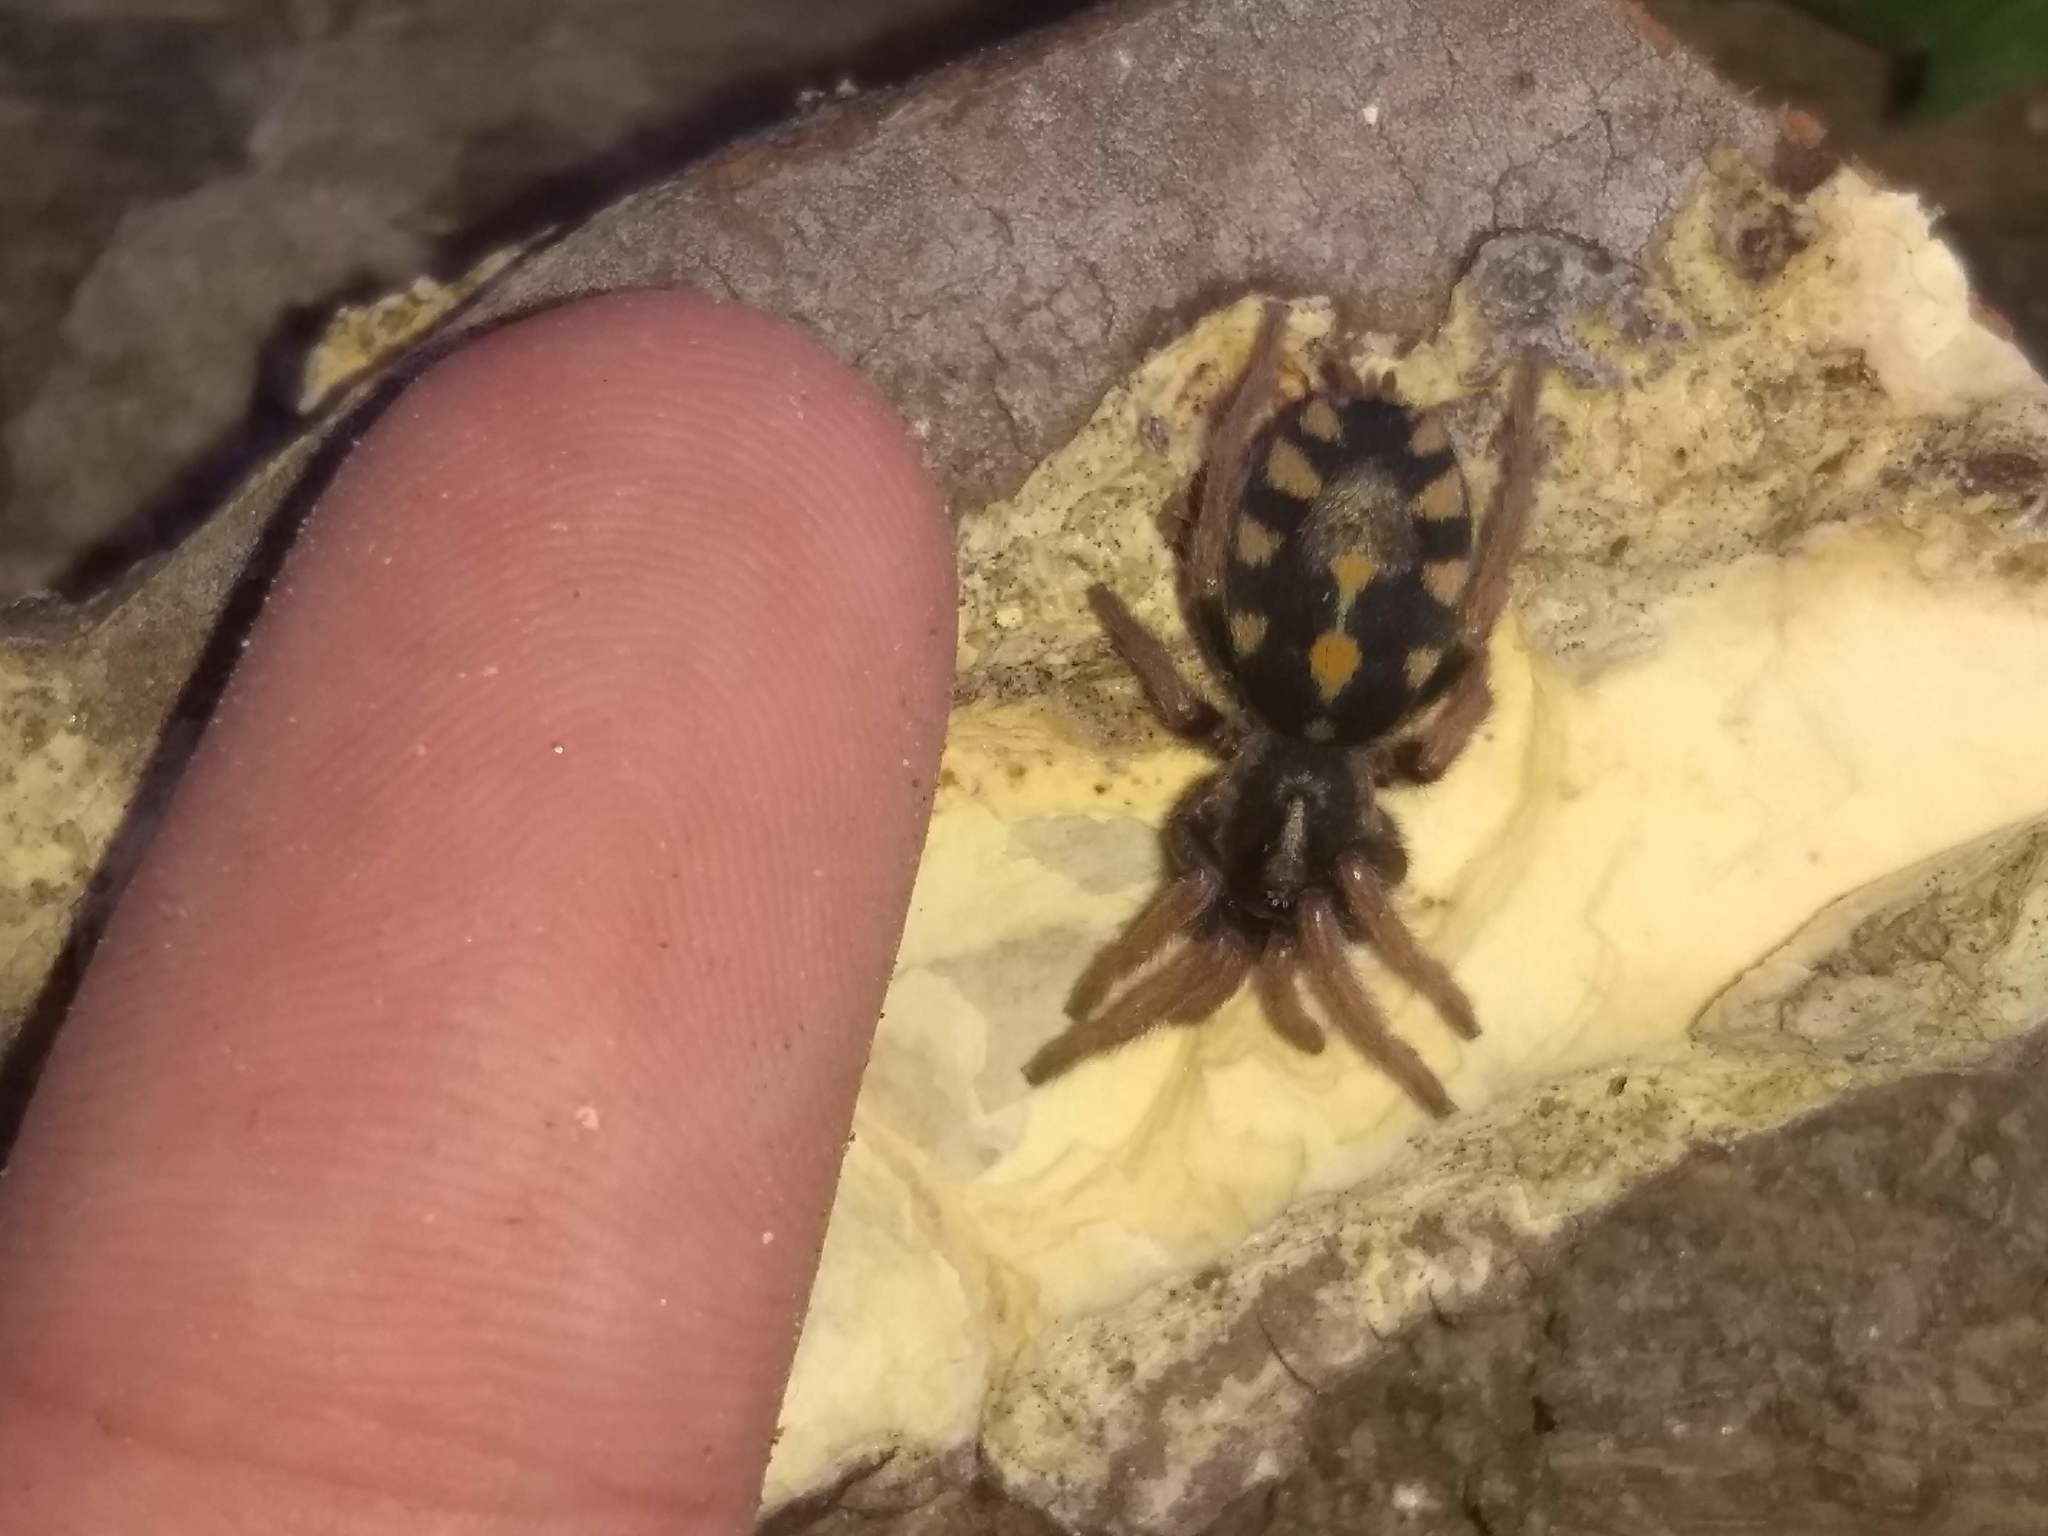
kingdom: Animalia
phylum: Arthropoda
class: Arachnida
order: Araneae
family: Theraphosidae
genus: Hapalopus
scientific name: Hapalopus formosus
